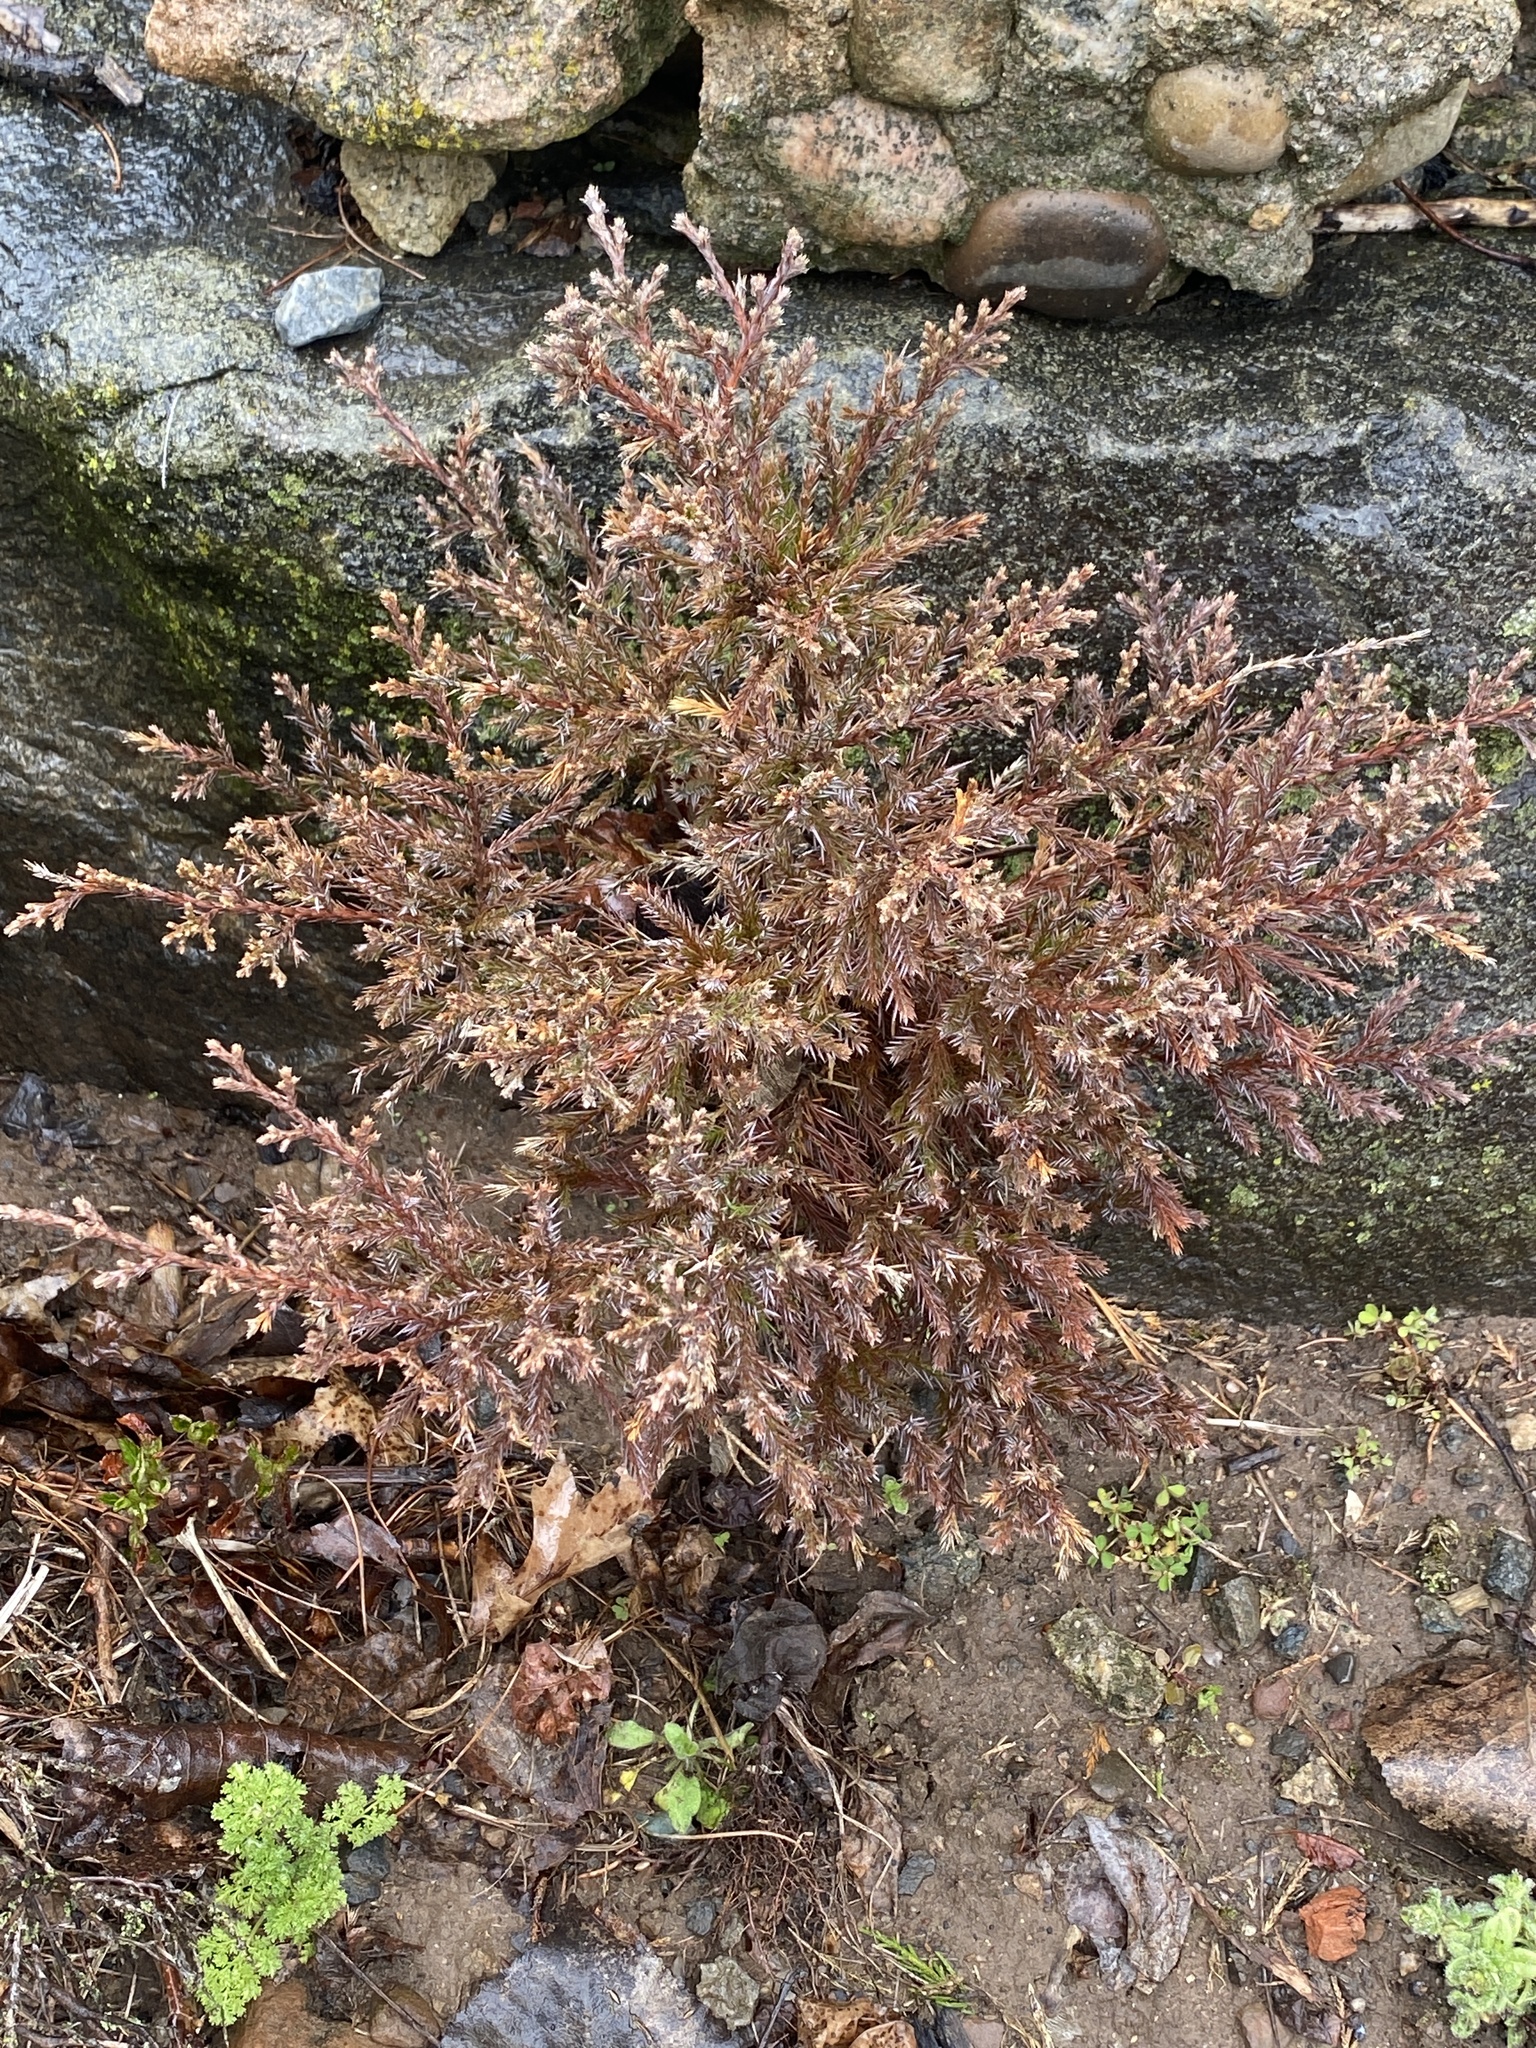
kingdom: Plantae
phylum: Tracheophyta
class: Pinopsida
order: Pinales
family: Cupressaceae
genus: Juniperus
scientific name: Juniperus virginiana
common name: Red juniper
